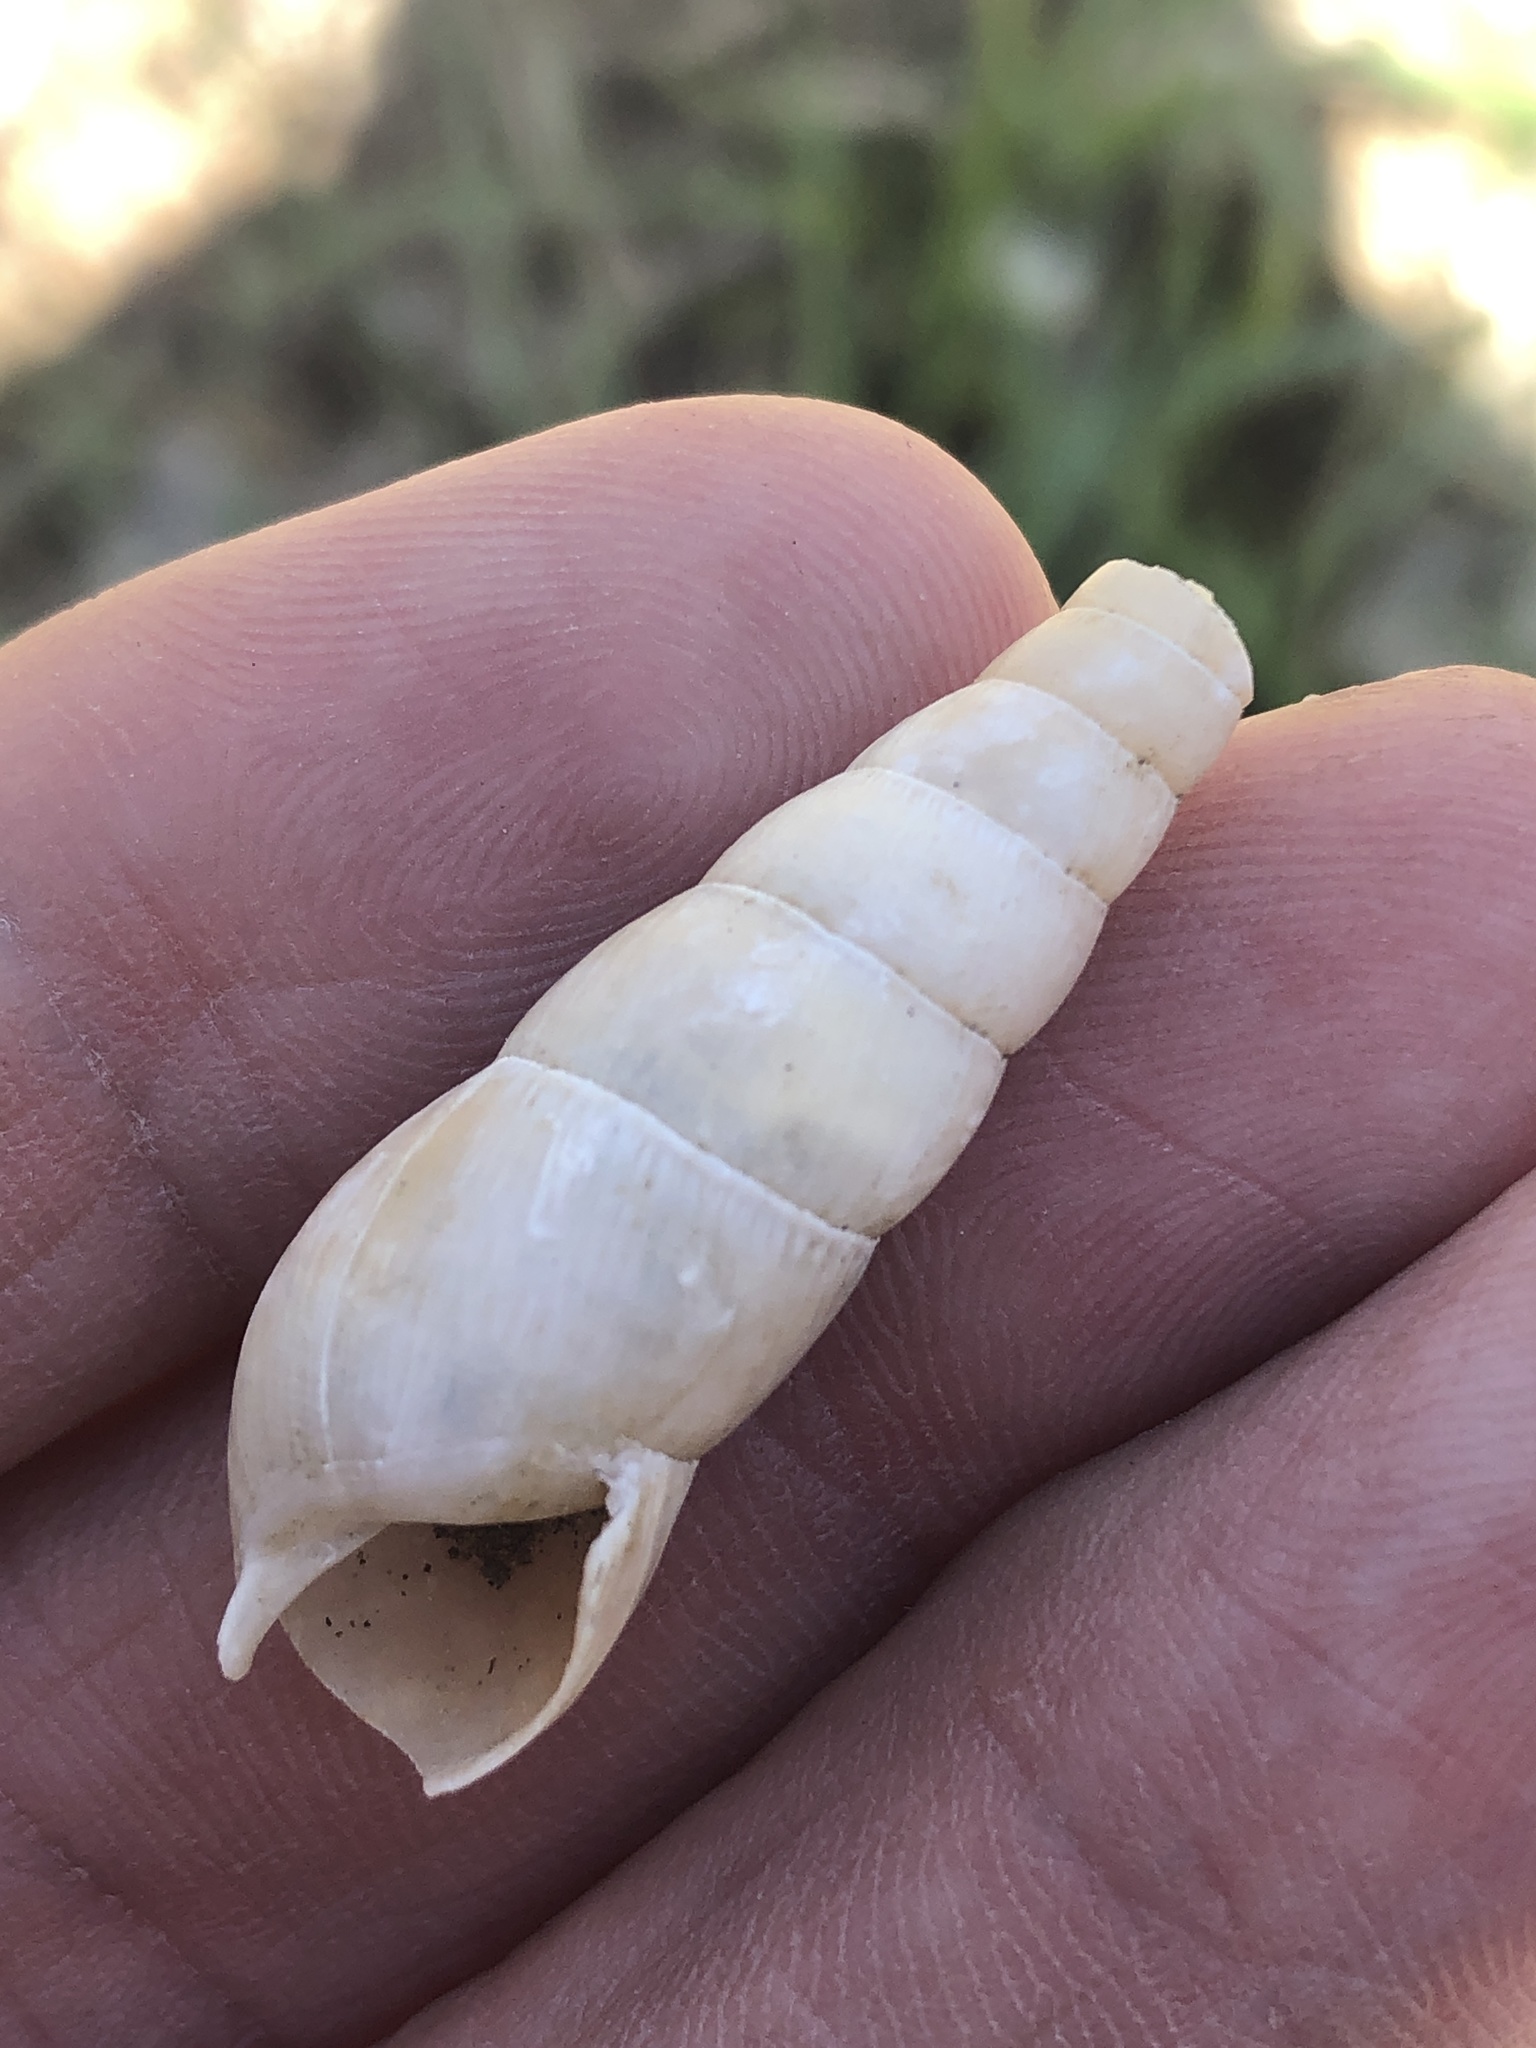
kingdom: Animalia
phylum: Mollusca
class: Gastropoda
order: Stylommatophora
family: Achatinidae
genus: Rumina
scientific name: Rumina decollata
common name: Decollate snail
